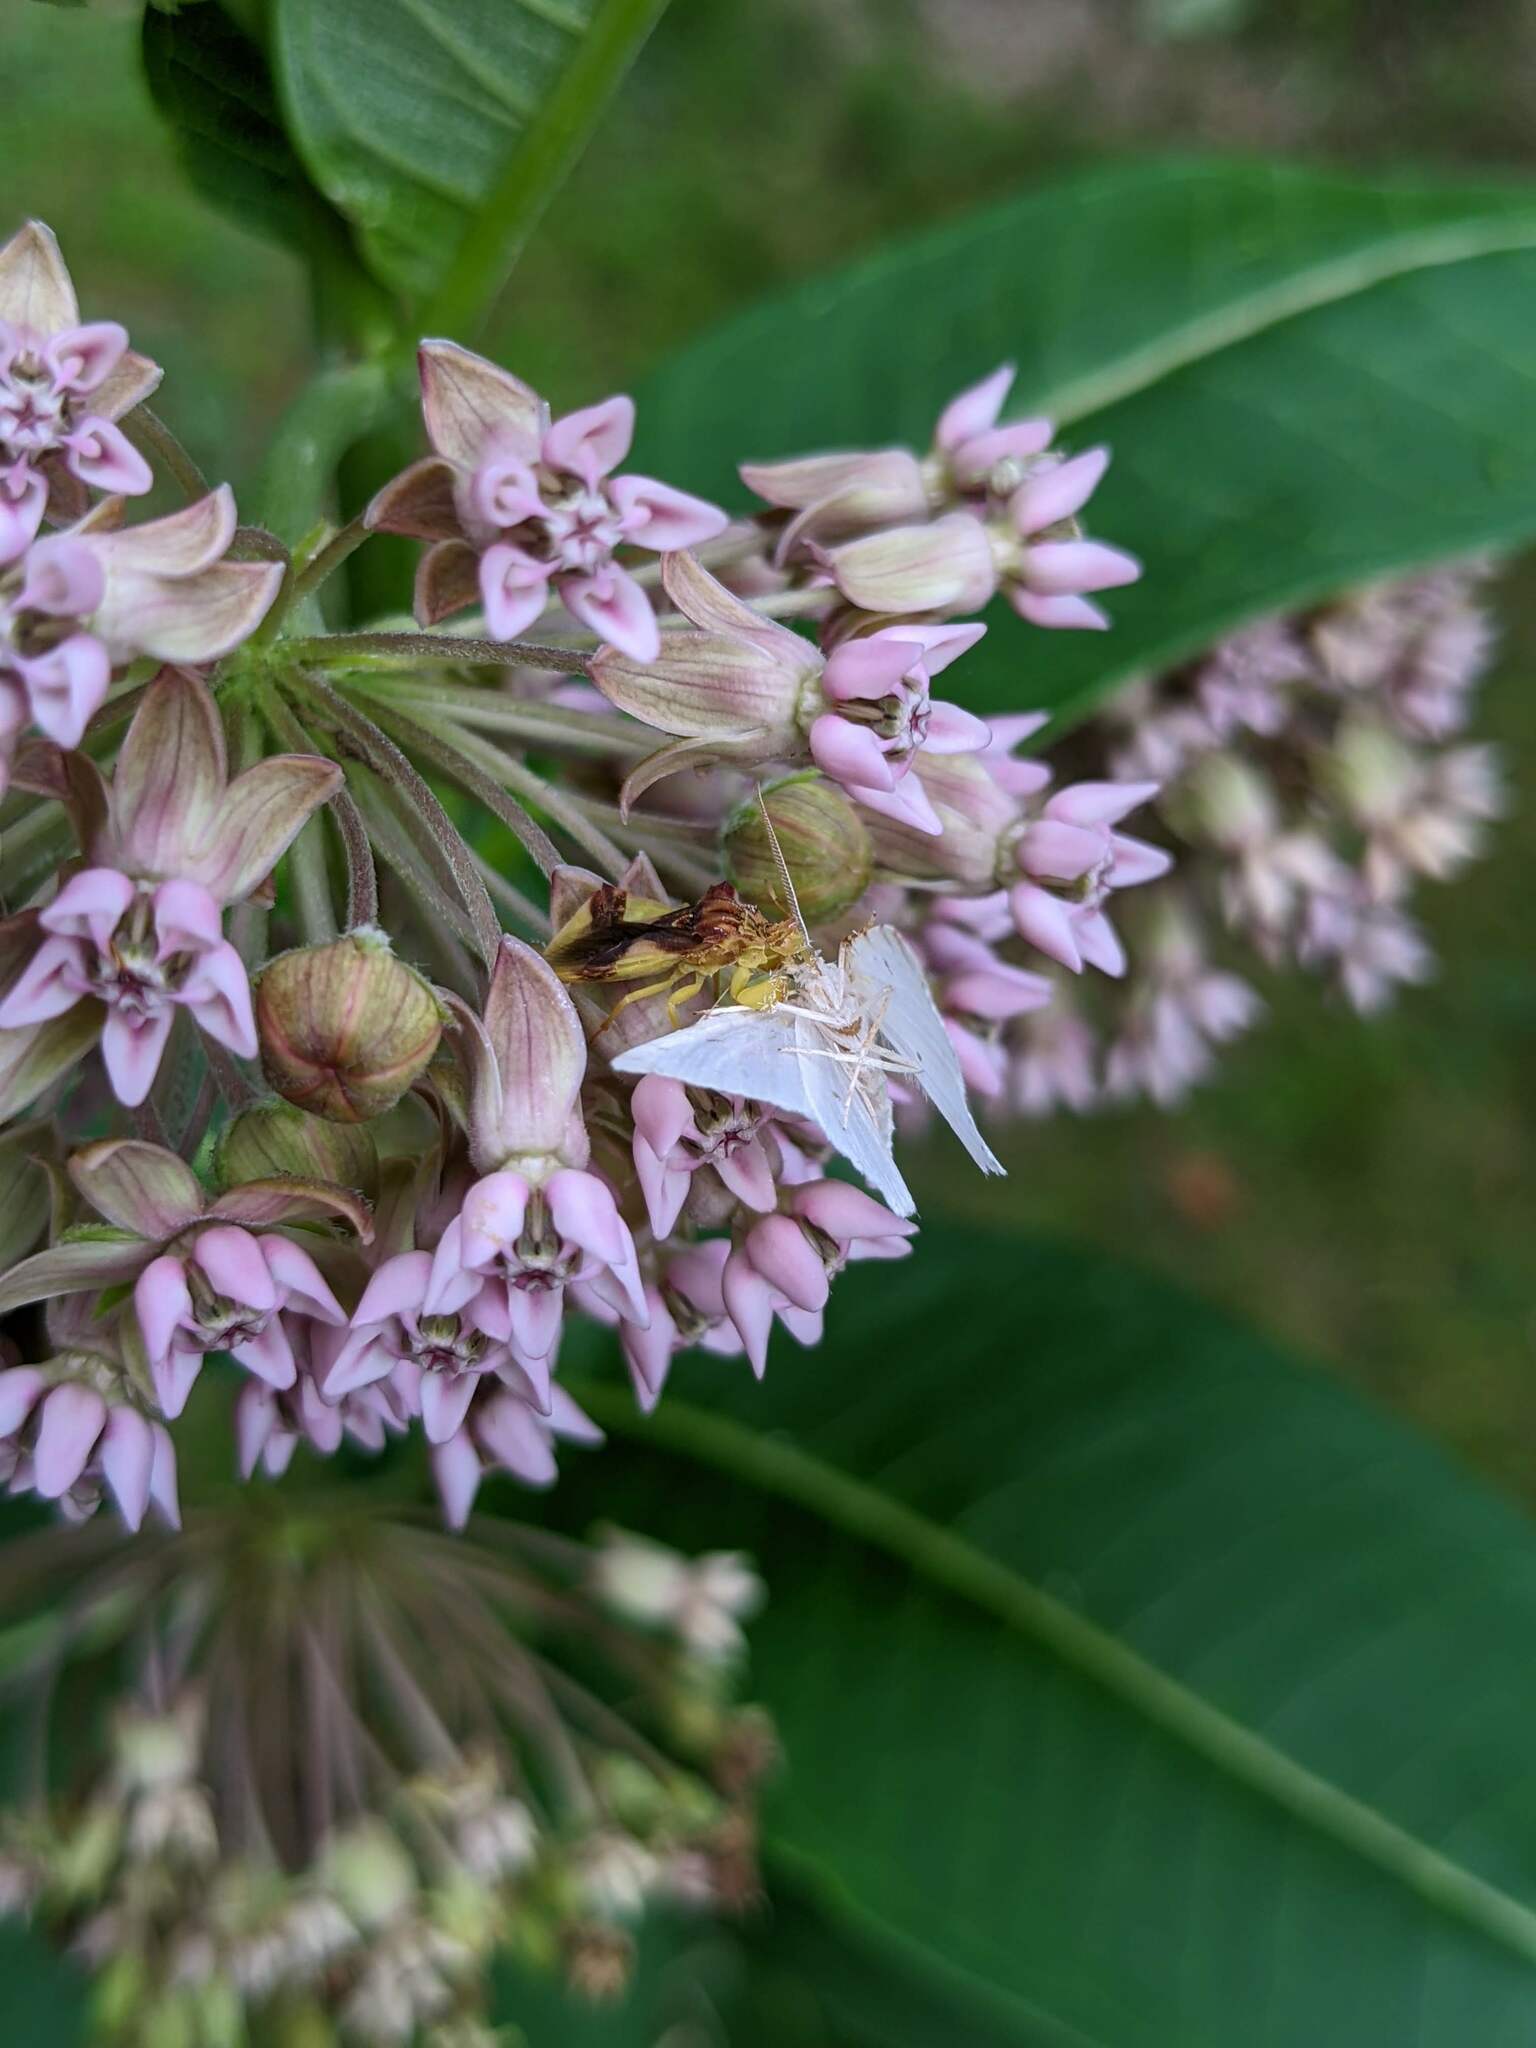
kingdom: Animalia
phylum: Arthropoda
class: Insecta
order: Lepidoptera
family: Geometridae
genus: Macaria
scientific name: Macaria pustularia
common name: Lesser maple spanworm moth
